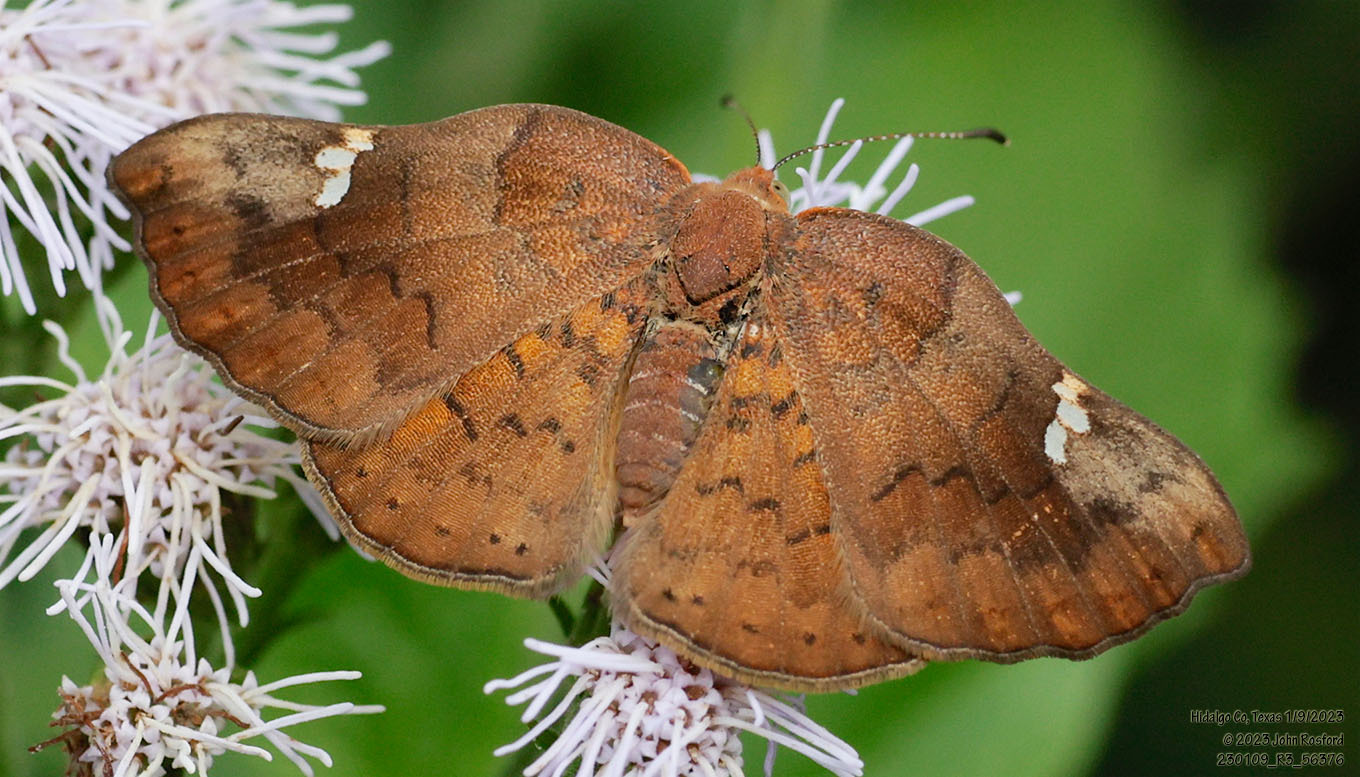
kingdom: Animalia
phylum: Arthropoda
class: Insecta
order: Lepidoptera
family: Riodinidae
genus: Curvie
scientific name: Curvie emesia
